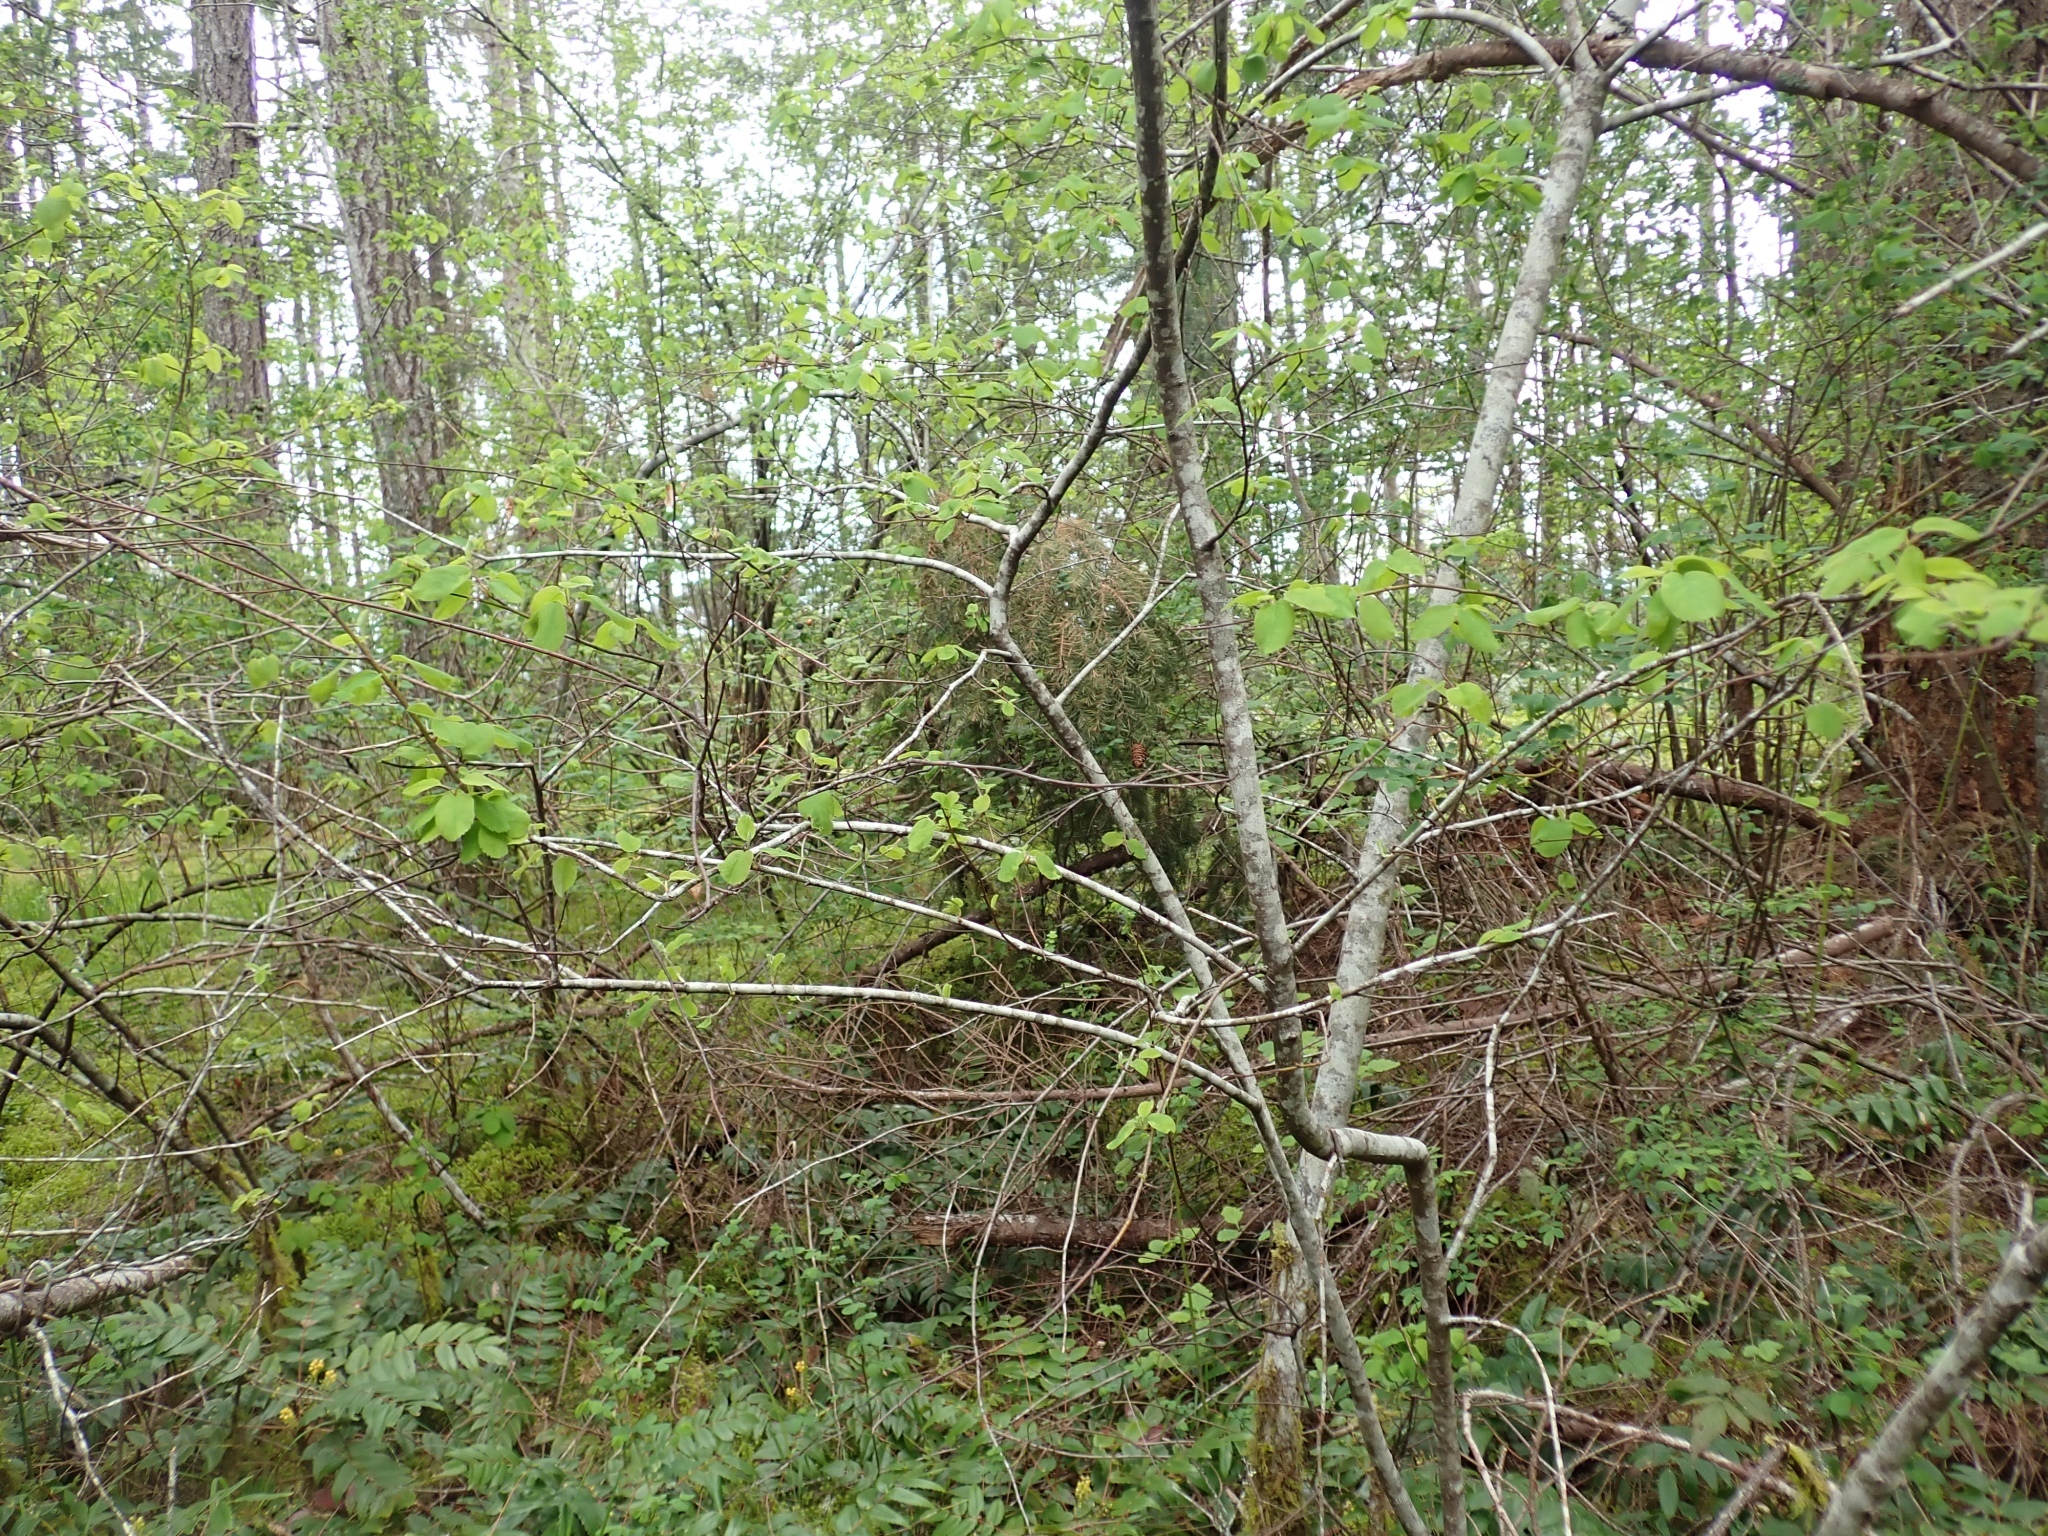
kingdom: Plantae
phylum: Tracheophyta
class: Magnoliopsida
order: Rosales
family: Rosaceae
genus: Amelanchier
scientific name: Amelanchier alnifolia
